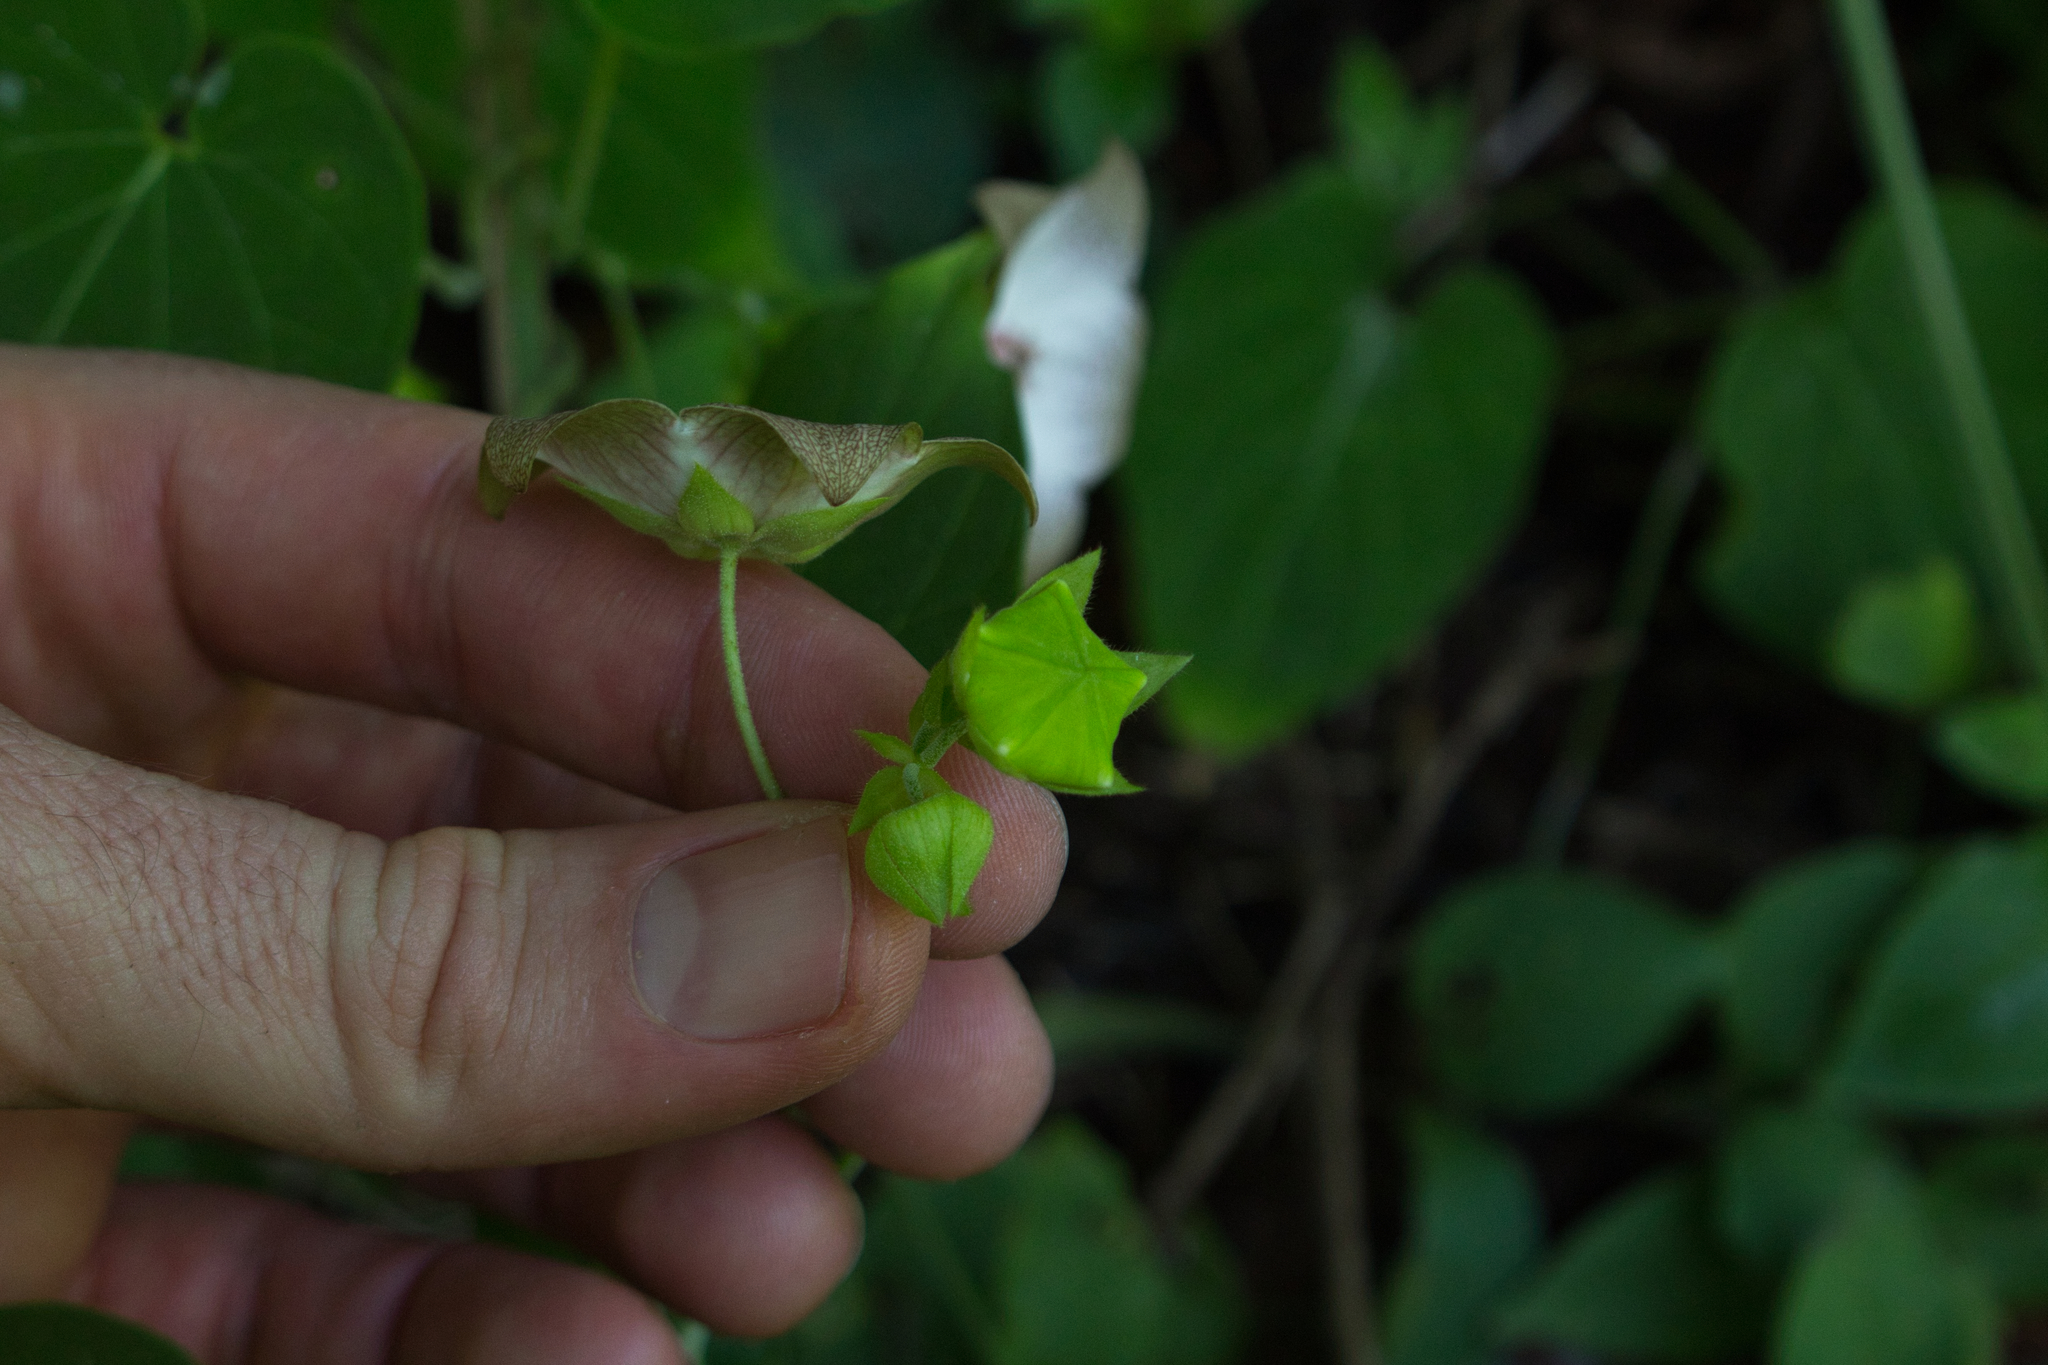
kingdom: Plantae
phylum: Tracheophyta
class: Magnoliopsida
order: Gentianales
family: Apocynaceae
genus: Polystemma
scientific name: Polystemma guatemalense
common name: Arborescente rattan
